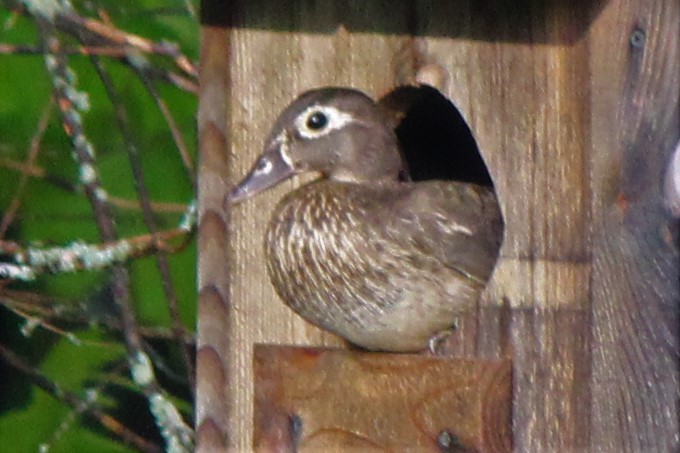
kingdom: Animalia
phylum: Chordata
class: Aves
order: Anseriformes
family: Anatidae
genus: Aix
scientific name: Aix sponsa
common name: Wood duck
